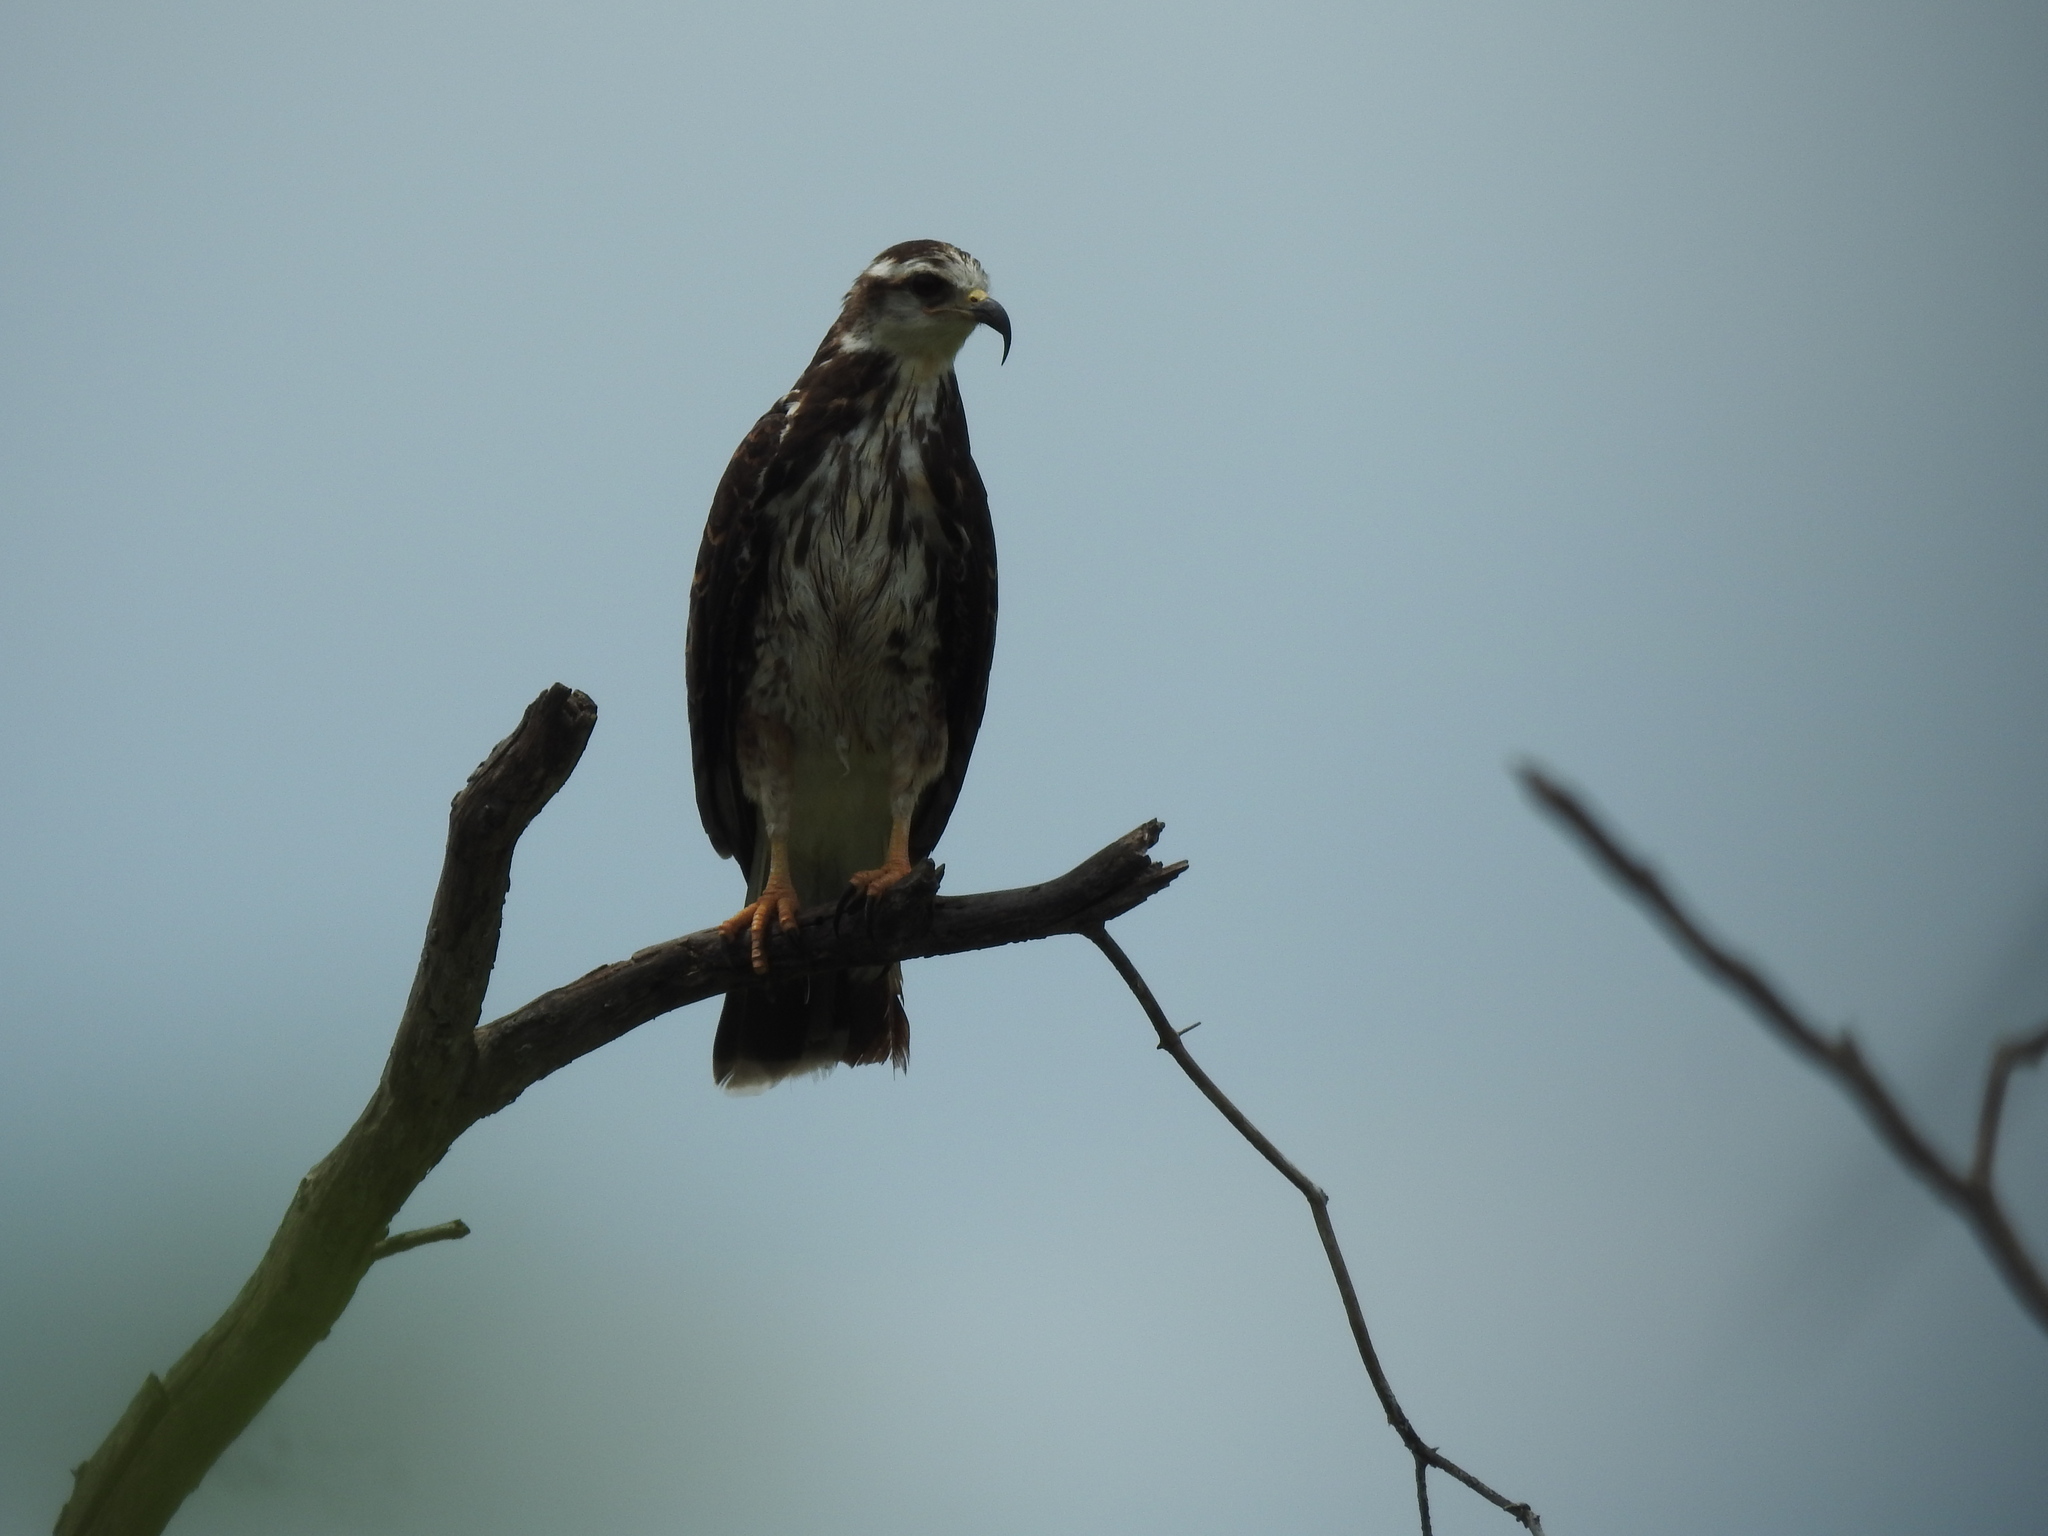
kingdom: Animalia
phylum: Chordata
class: Aves
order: Accipitriformes
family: Accipitridae
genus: Rostrhamus
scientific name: Rostrhamus sociabilis
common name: Snail kite
